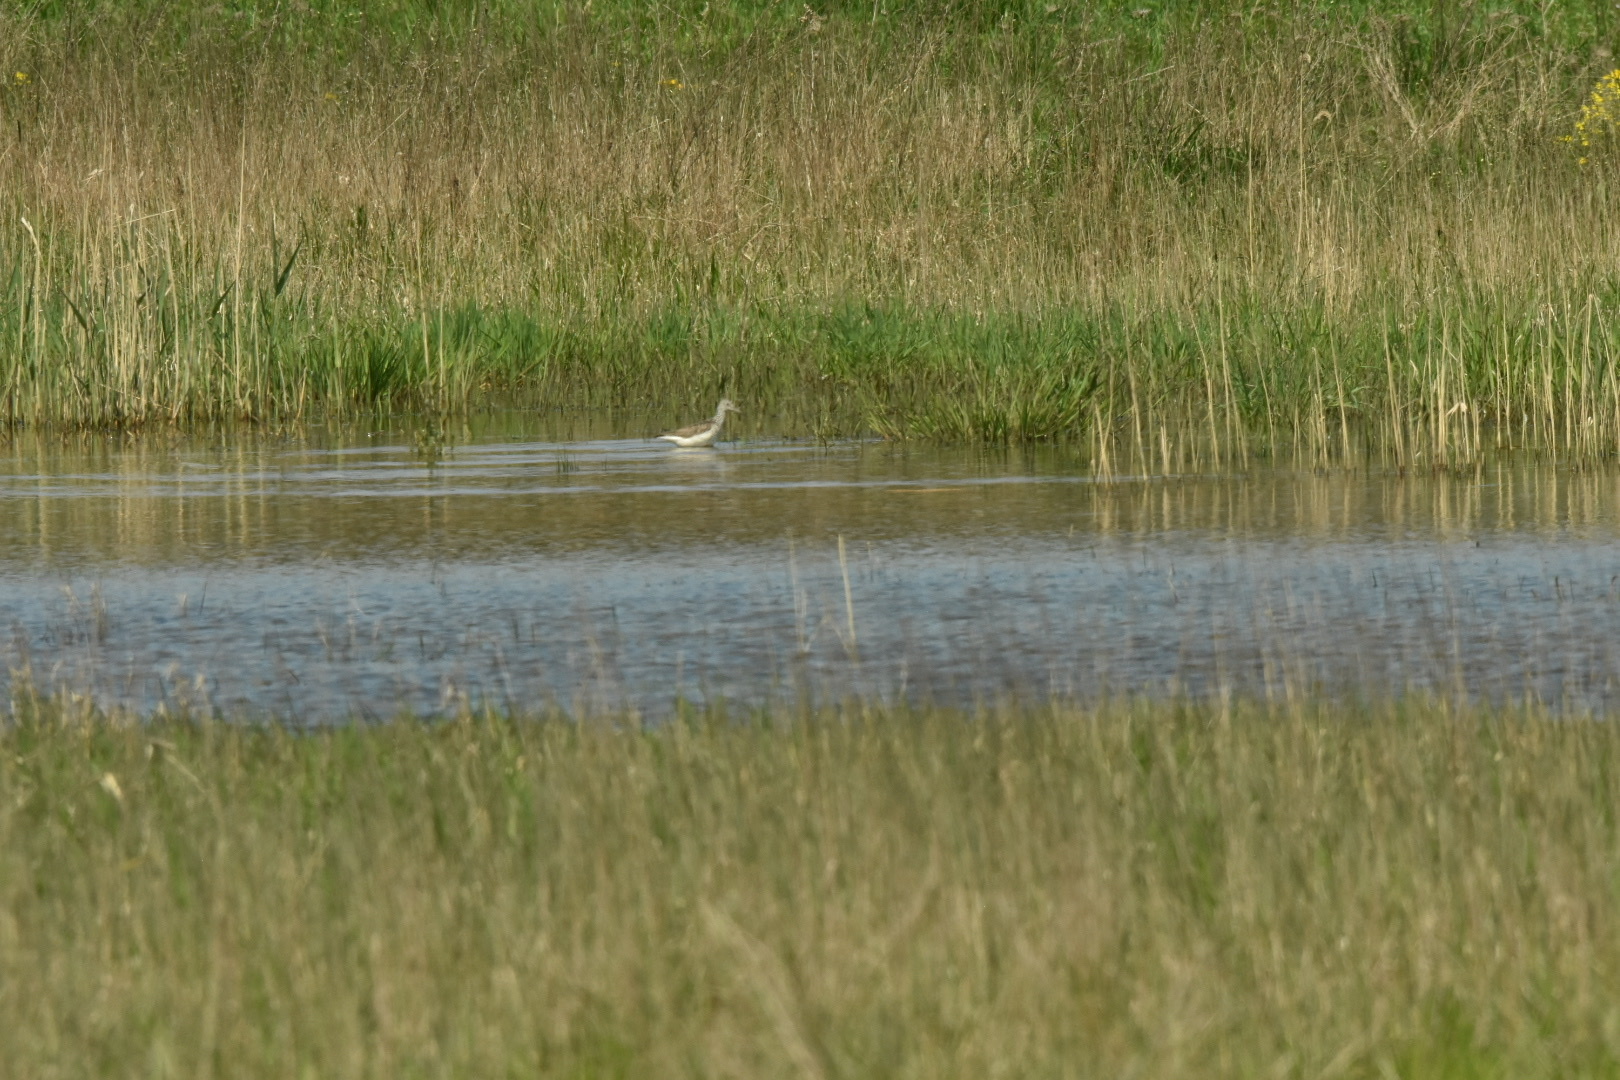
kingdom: Animalia
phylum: Chordata
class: Aves
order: Charadriiformes
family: Scolopacidae
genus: Tringa
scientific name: Tringa nebularia
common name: Common greenshank
